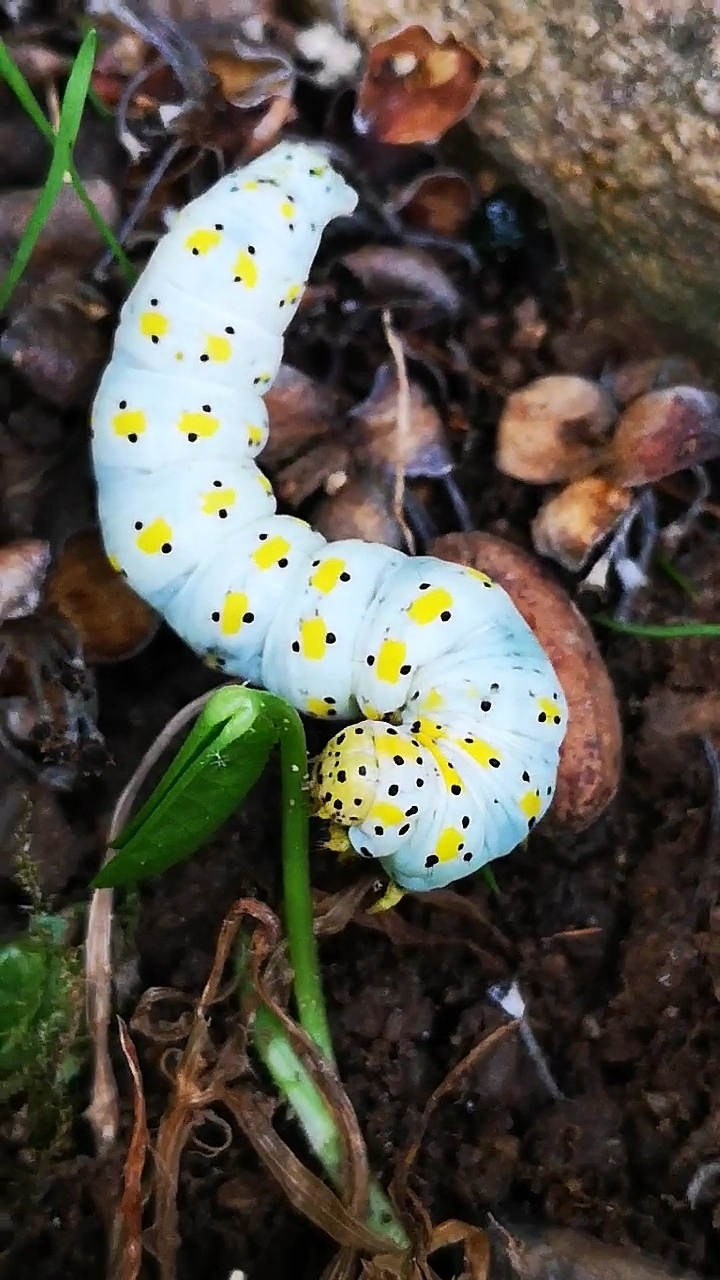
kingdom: Animalia
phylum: Arthropoda
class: Insecta
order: Lepidoptera
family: Noctuidae
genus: Cucullia
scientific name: Cucullia verbasci
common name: Mullein
